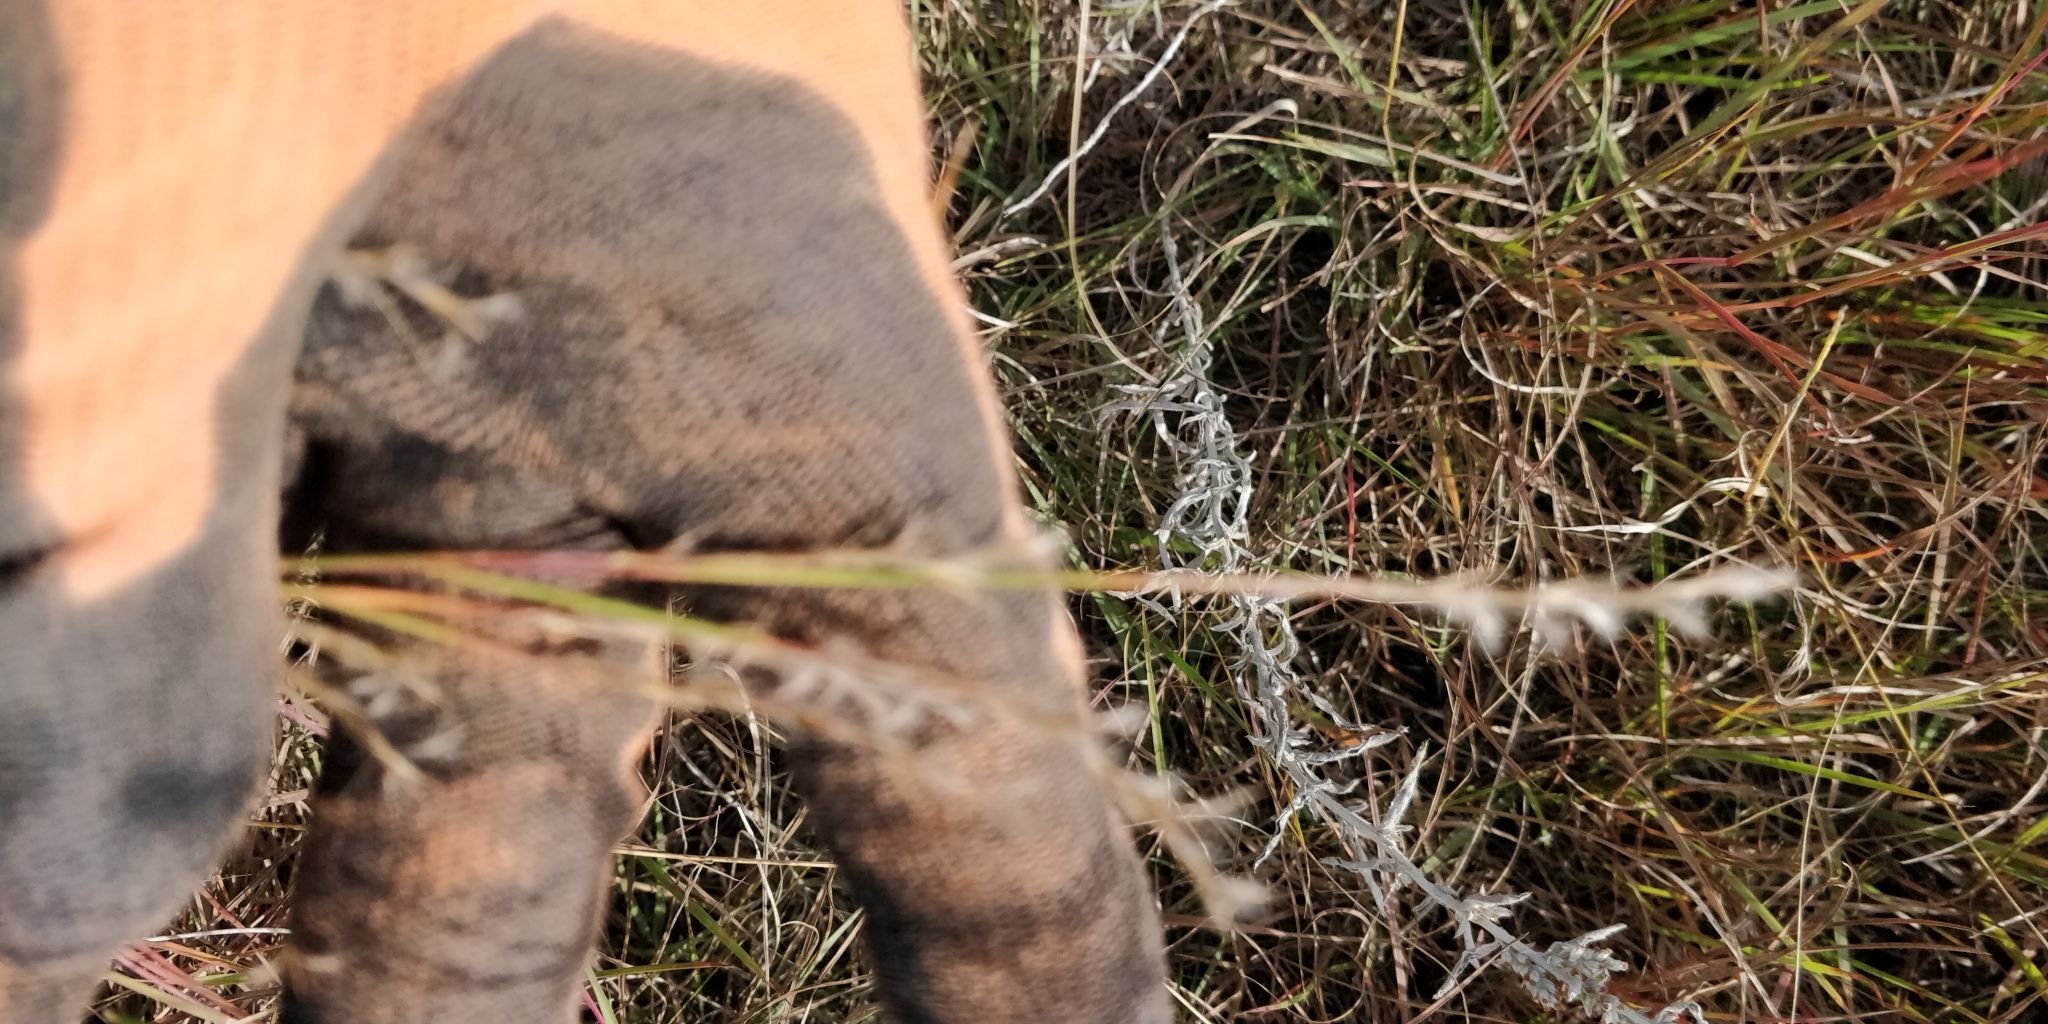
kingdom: Plantae
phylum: Tracheophyta
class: Liliopsida
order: Poales
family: Poaceae
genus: Schizachyrium
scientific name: Schizachyrium scoparium
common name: Little bluestem
